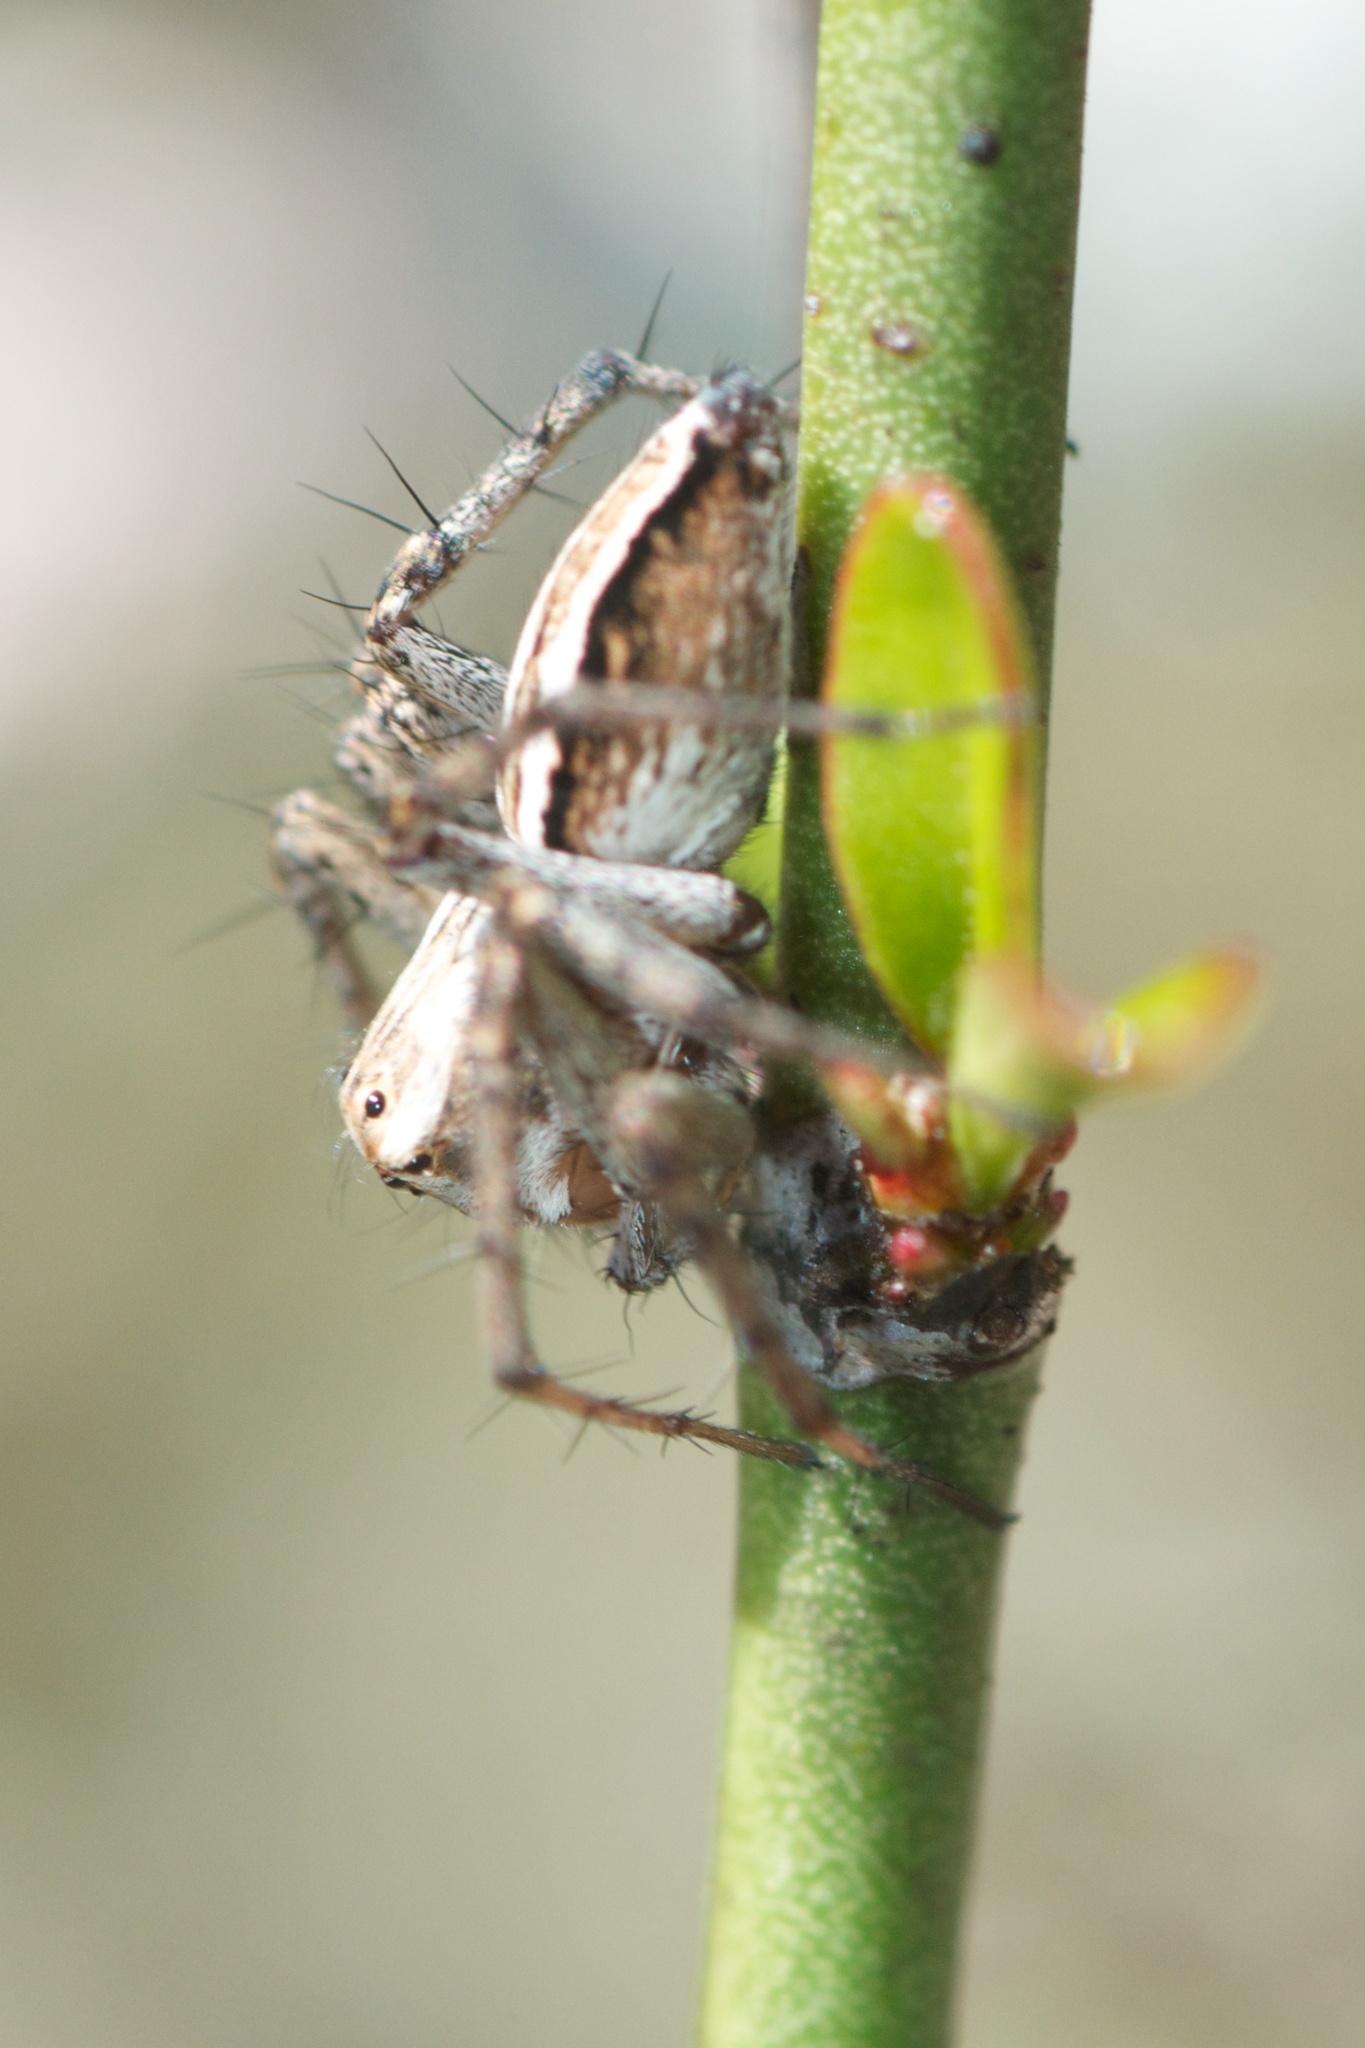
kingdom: Animalia
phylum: Arthropoda
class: Arachnida
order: Araneae
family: Oxyopidae
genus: Oxyopes
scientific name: Oxyopes gracilipes
